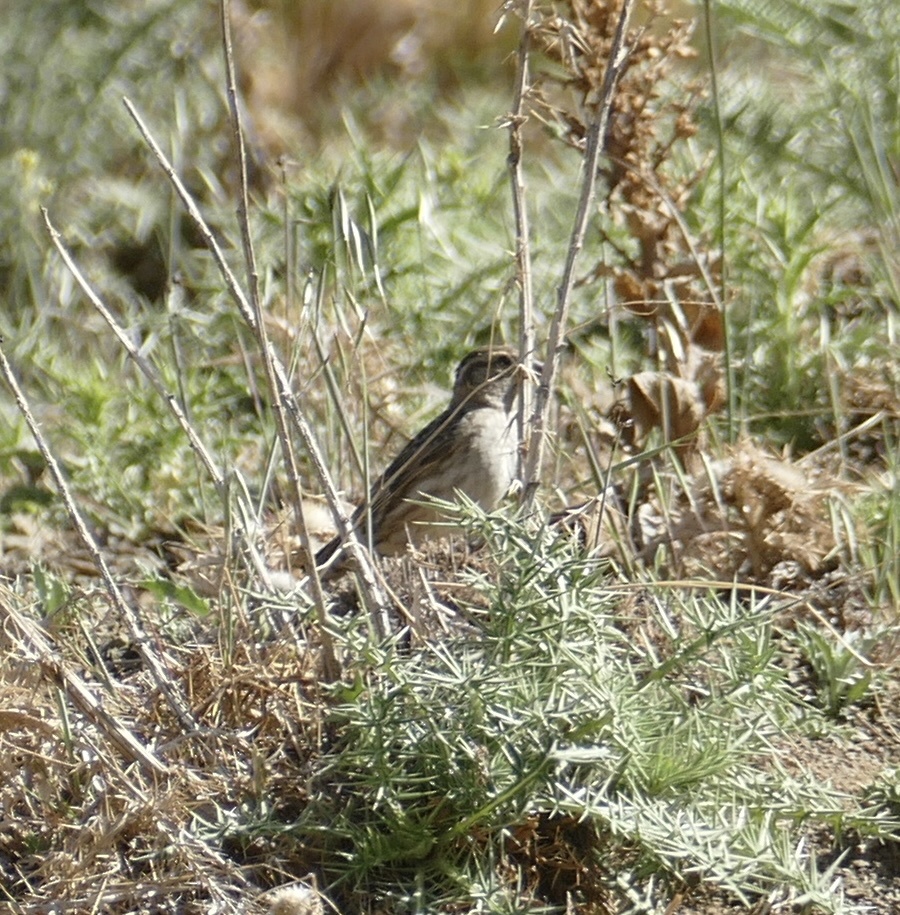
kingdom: Animalia
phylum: Chordata
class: Aves
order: Passeriformes
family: Passeridae
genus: Petronia
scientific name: Petronia petronia
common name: Rock sparrow
